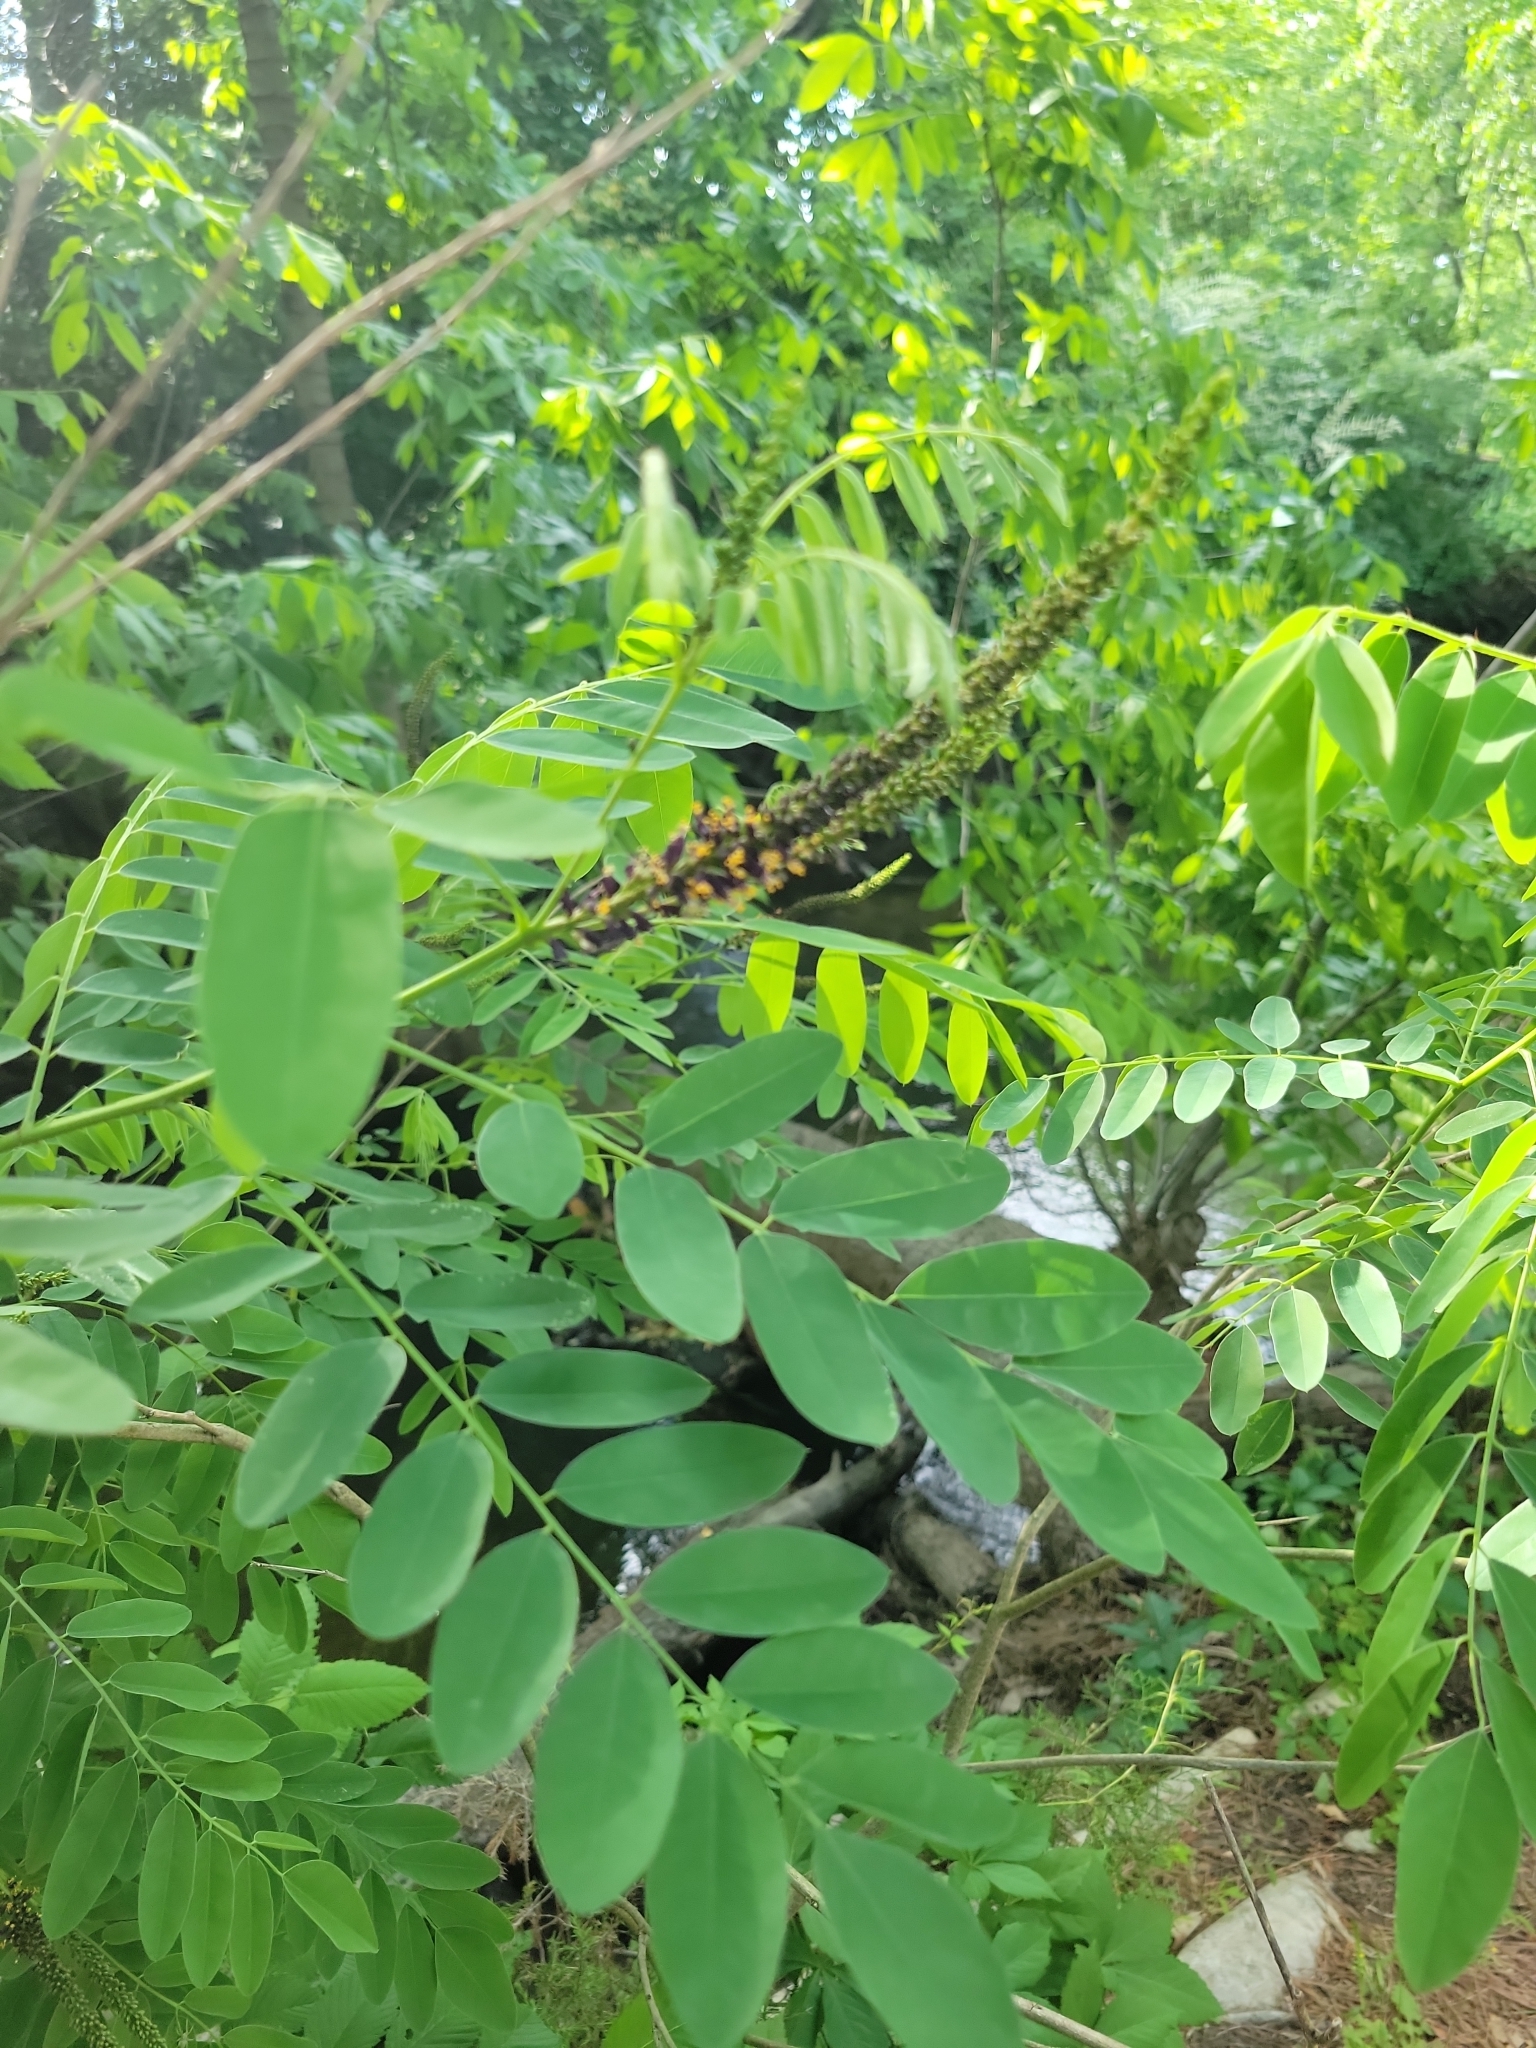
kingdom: Plantae
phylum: Tracheophyta
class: Magnoliopsida
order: Fabales
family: Fabaceae
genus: Amorpha
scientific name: Amorpha fruticosa
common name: False indigo
